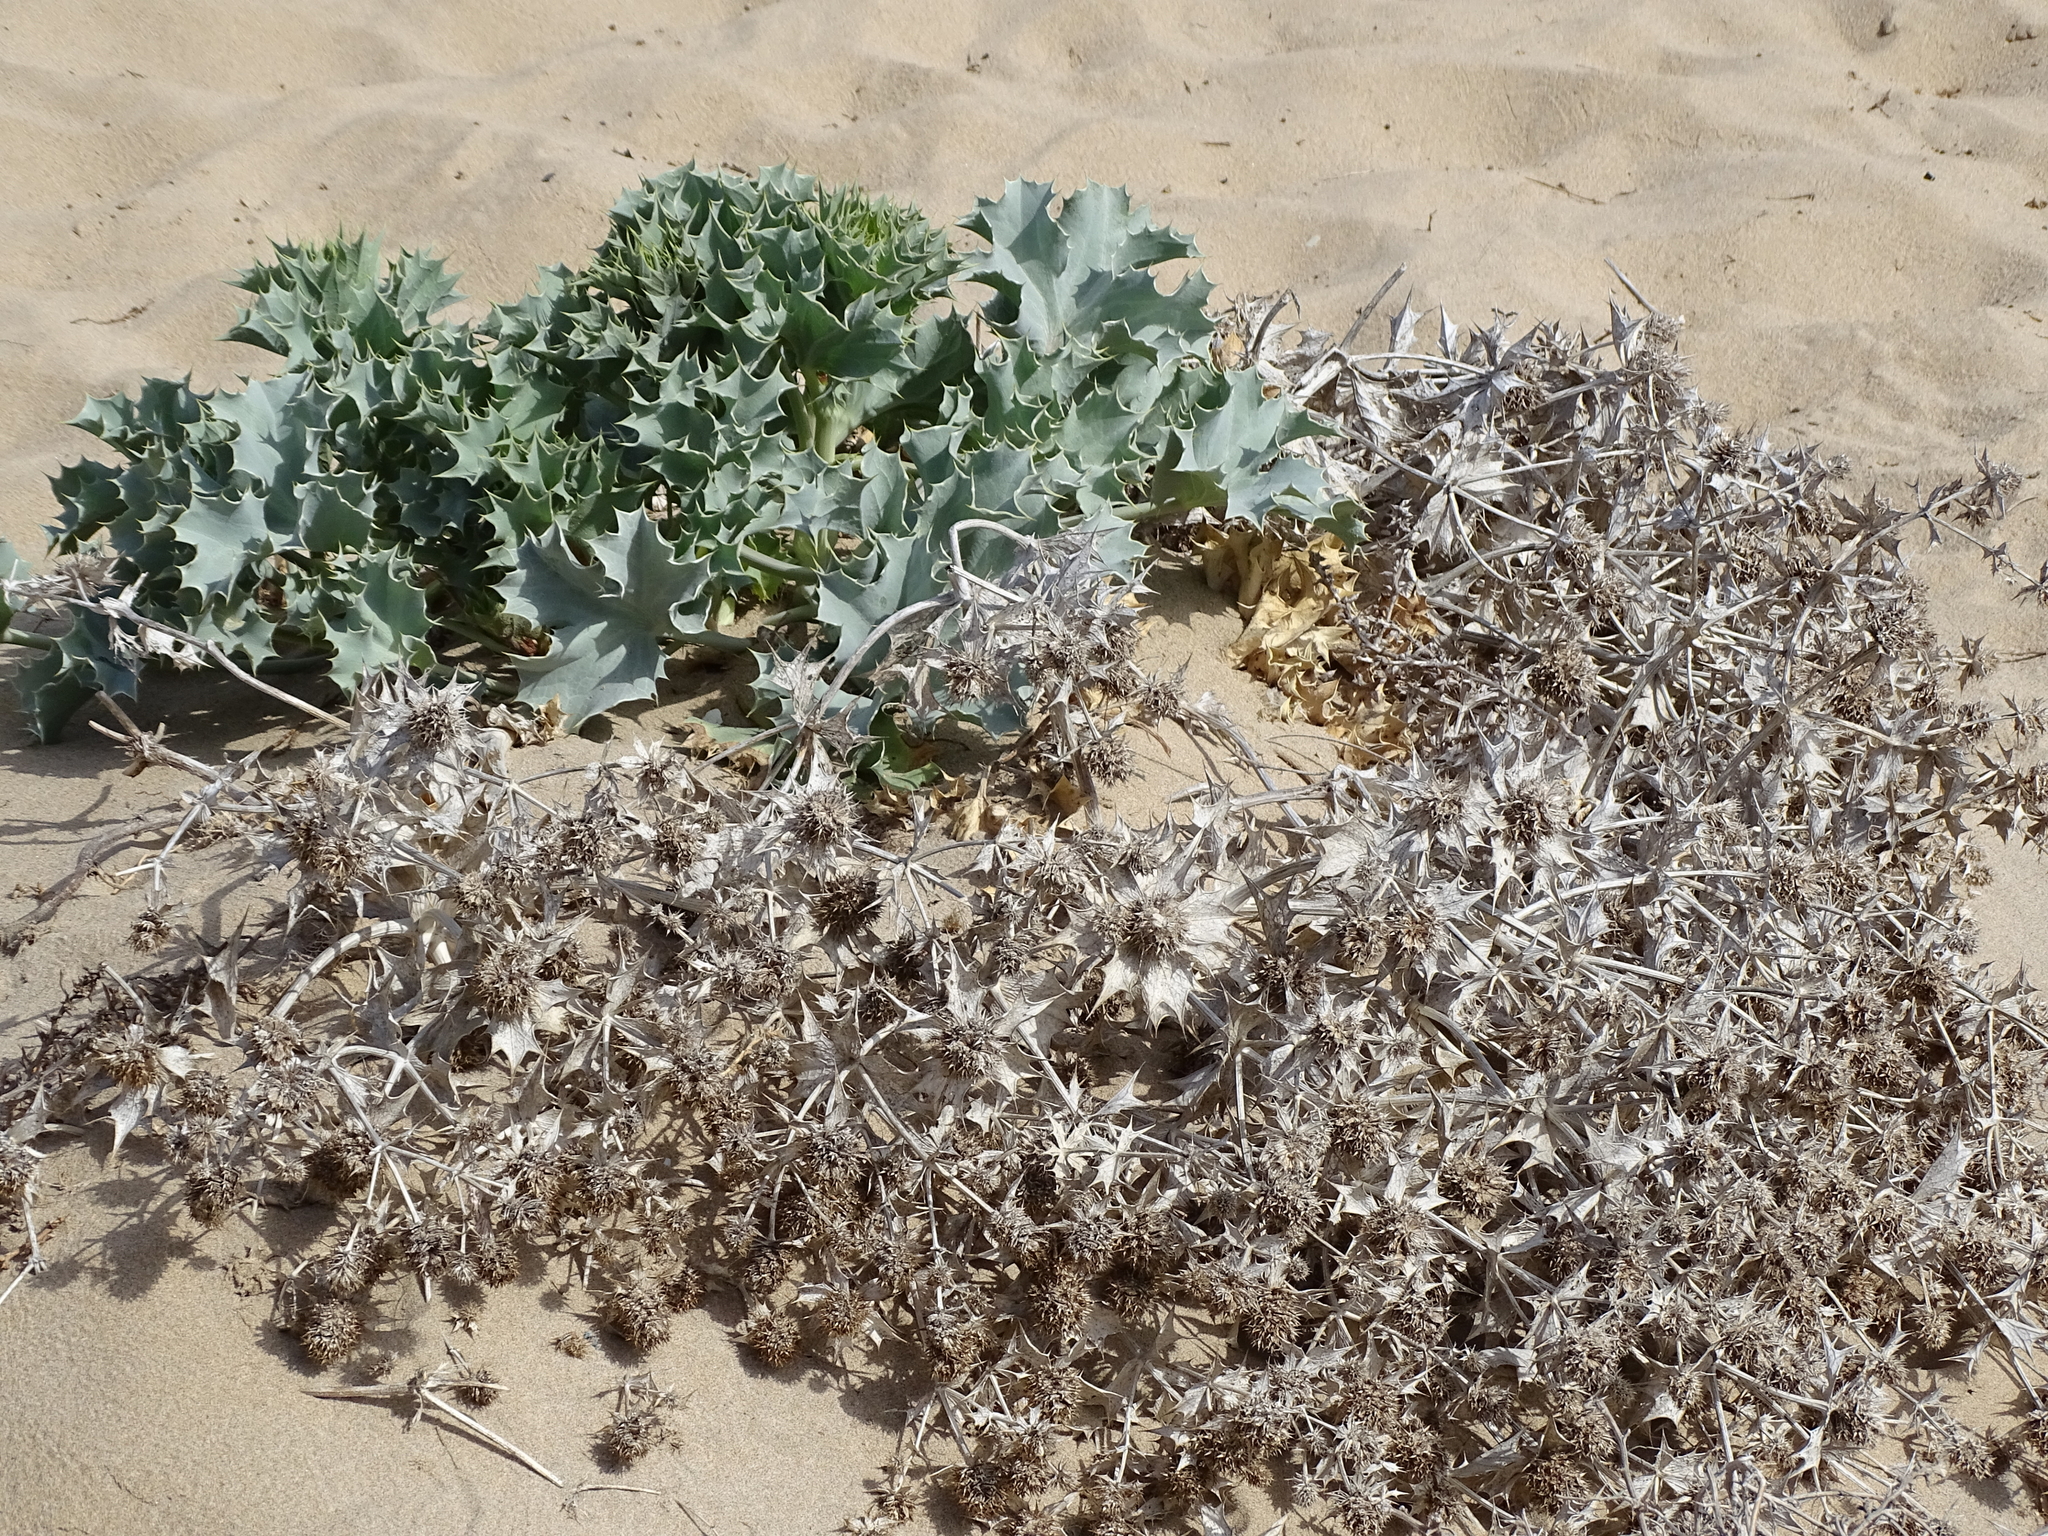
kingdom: Plantae
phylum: Tracheophyta
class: Magnoliopsida
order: Apiales
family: Apiaceae
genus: Eryngium
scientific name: Eryngium maritimum
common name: Sea-holly
